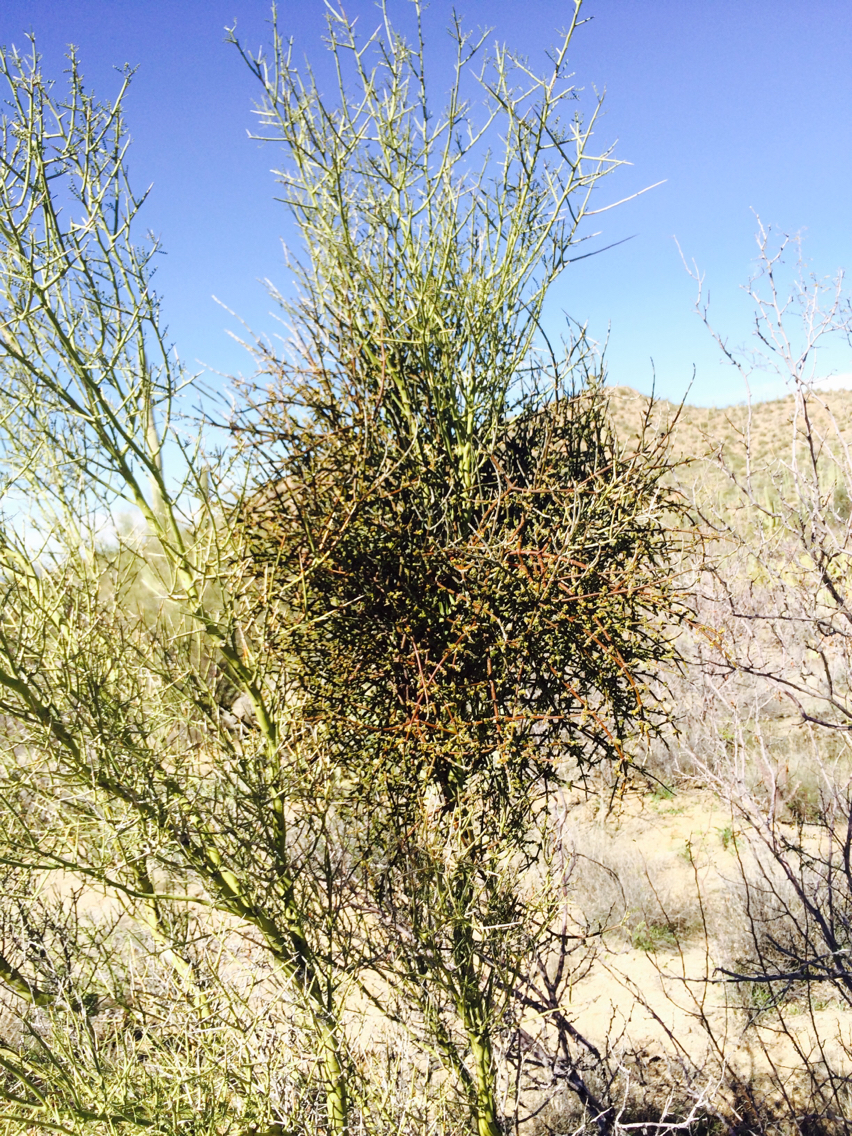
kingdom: Plantae
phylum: Tracheophyta
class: Magnoliopsida
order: Santalales
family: Viscaceae
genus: Phoradendron
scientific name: Phoradendron californicum
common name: Acacia mistletoe
